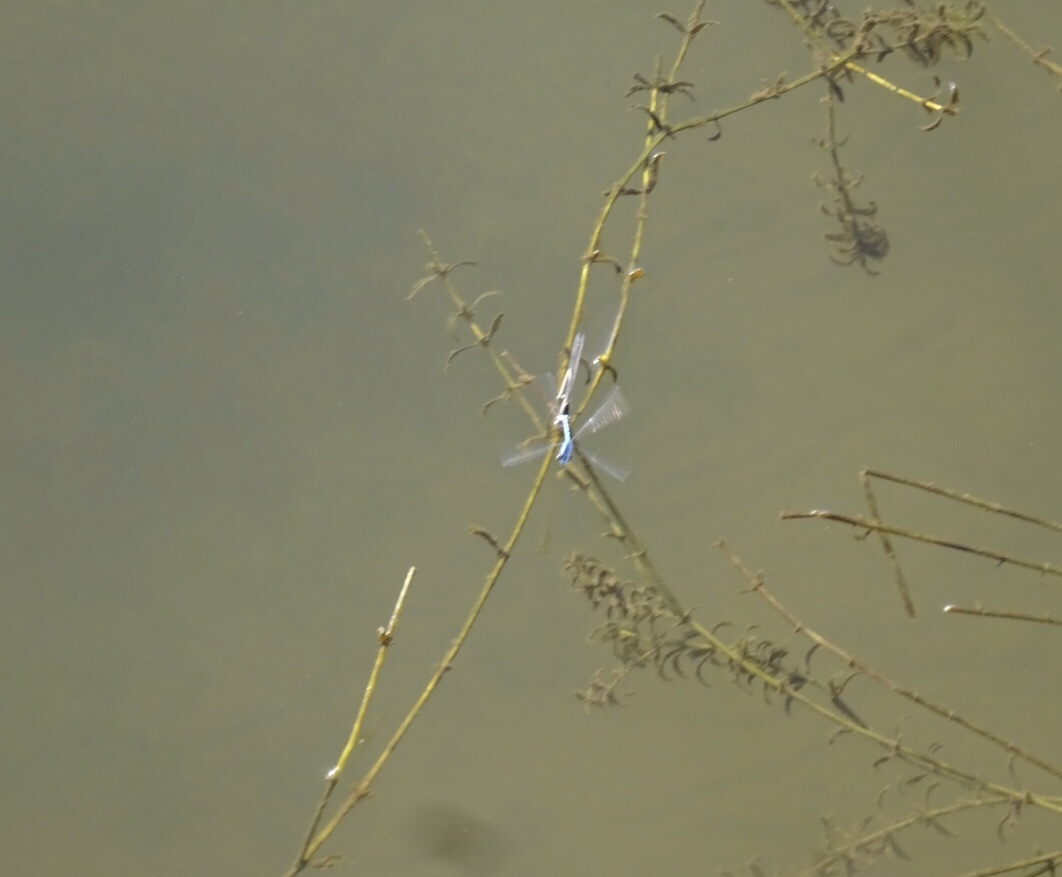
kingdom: Animalia
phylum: Arthropoda
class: Insecta
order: Odonata
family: Coenagrionidae
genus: Enallagma
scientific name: Enallagma civile
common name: Damselfly
